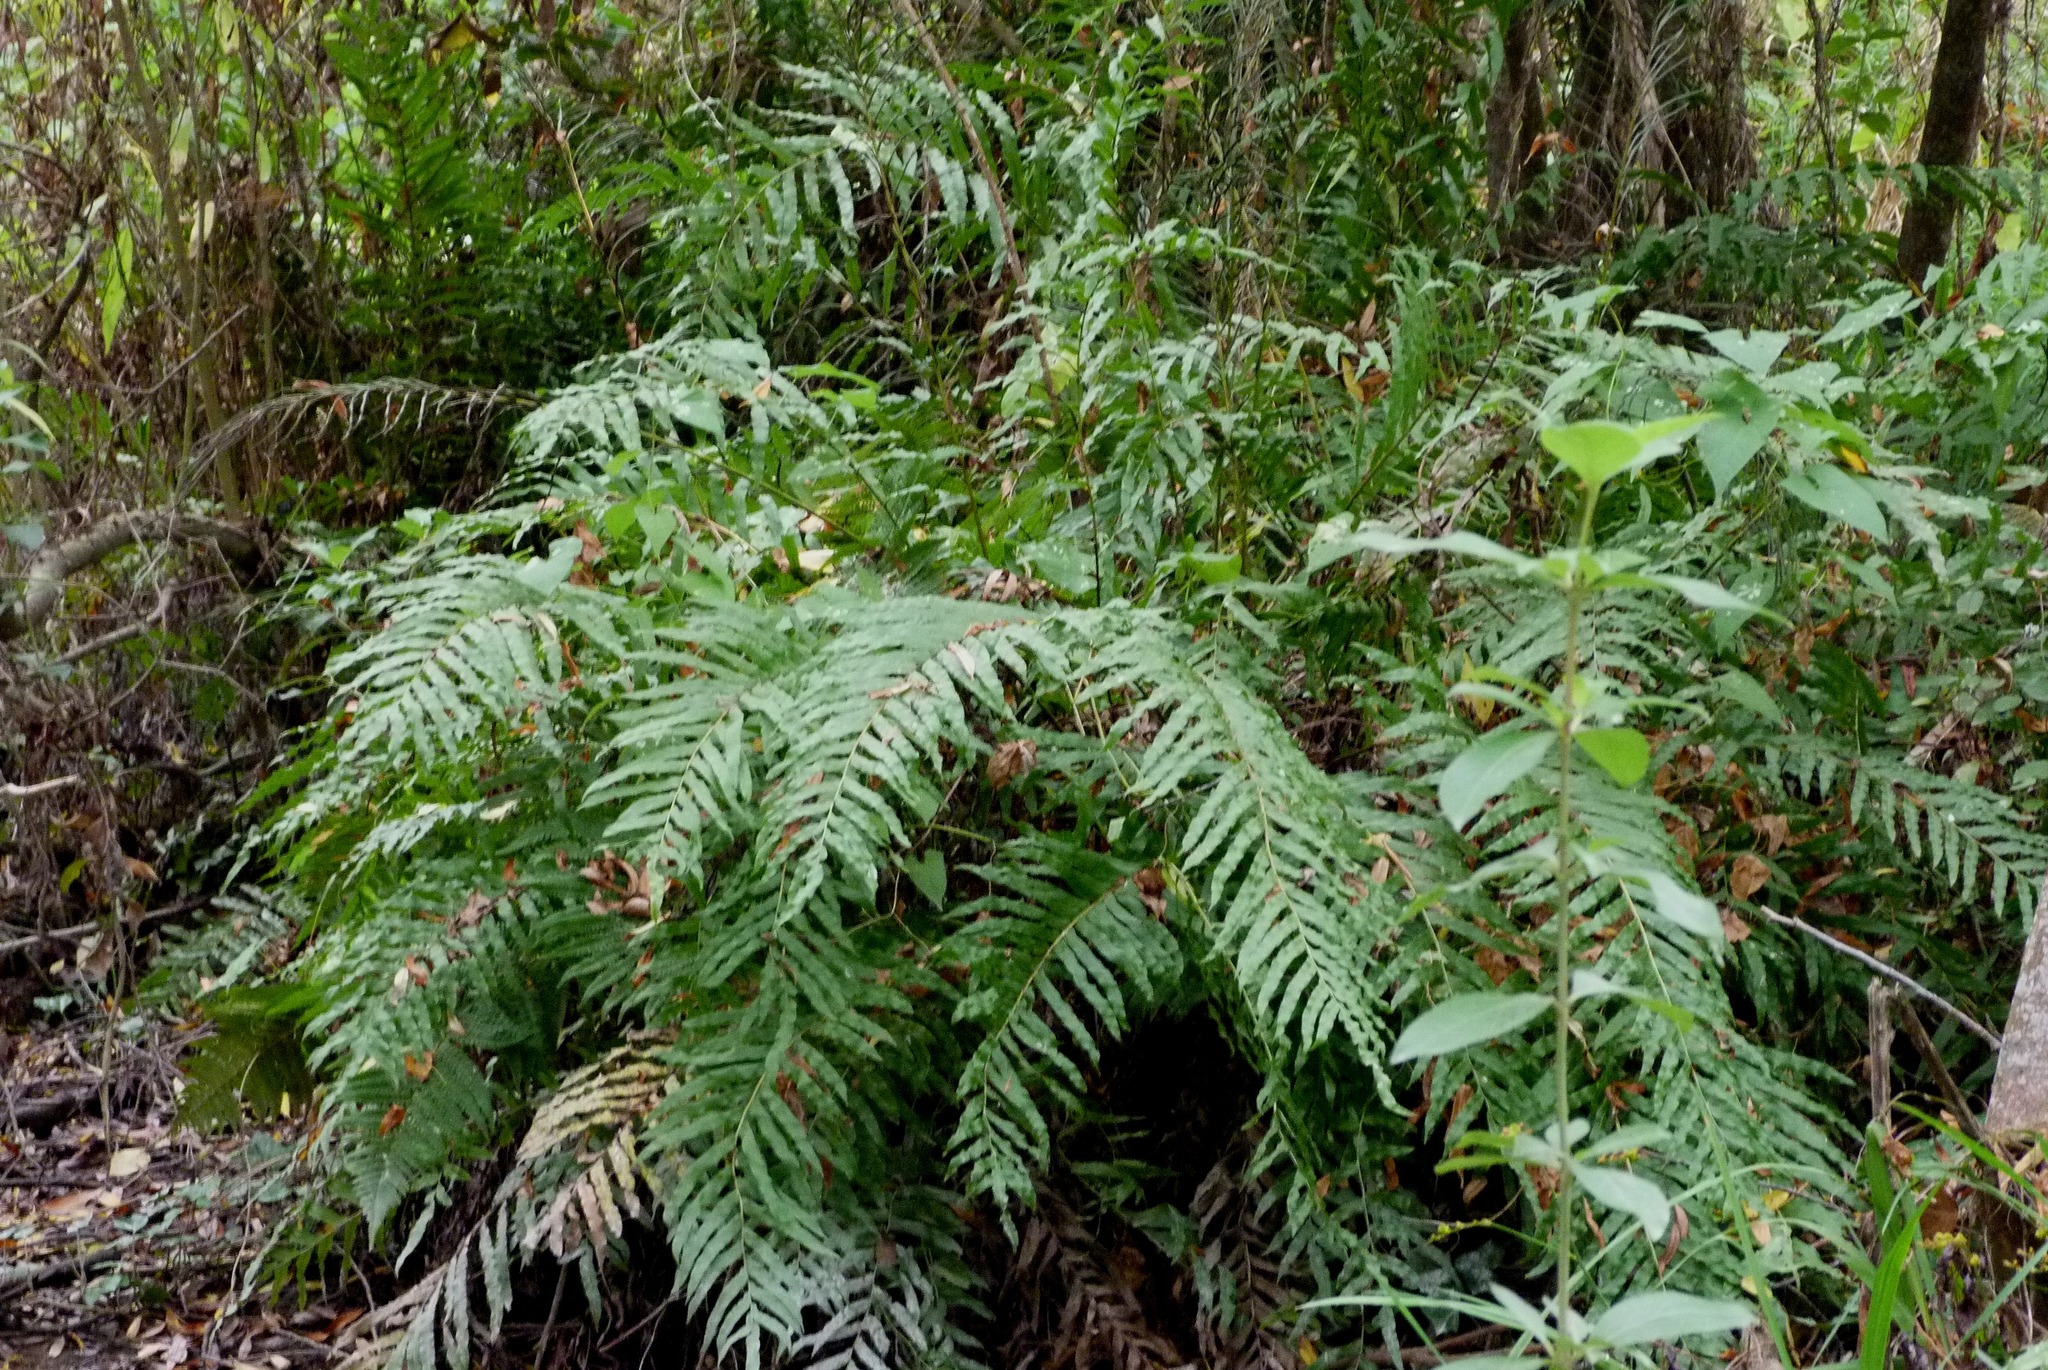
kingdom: Plantae
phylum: Tracheophyta
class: Polypodiopsida
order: Polypodiales
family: Blechnaceae
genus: Parablechnum
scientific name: Parablechnum novae-zelandiae
